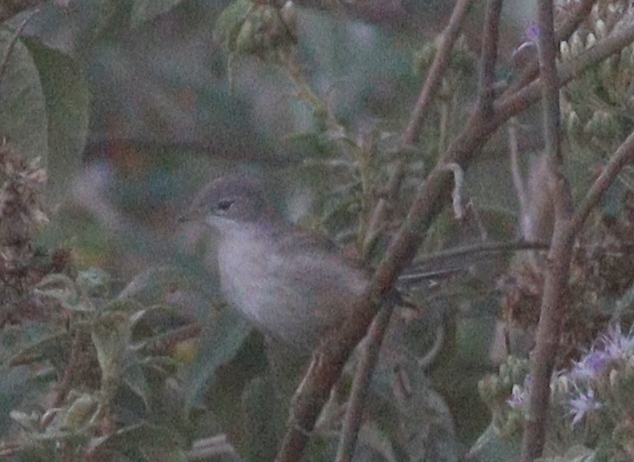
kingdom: Animalia
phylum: Chordata
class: Aves
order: Passeriformes
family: Sylviidae
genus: Sylvia
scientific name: Sylvia communis
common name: Common whitethroat
